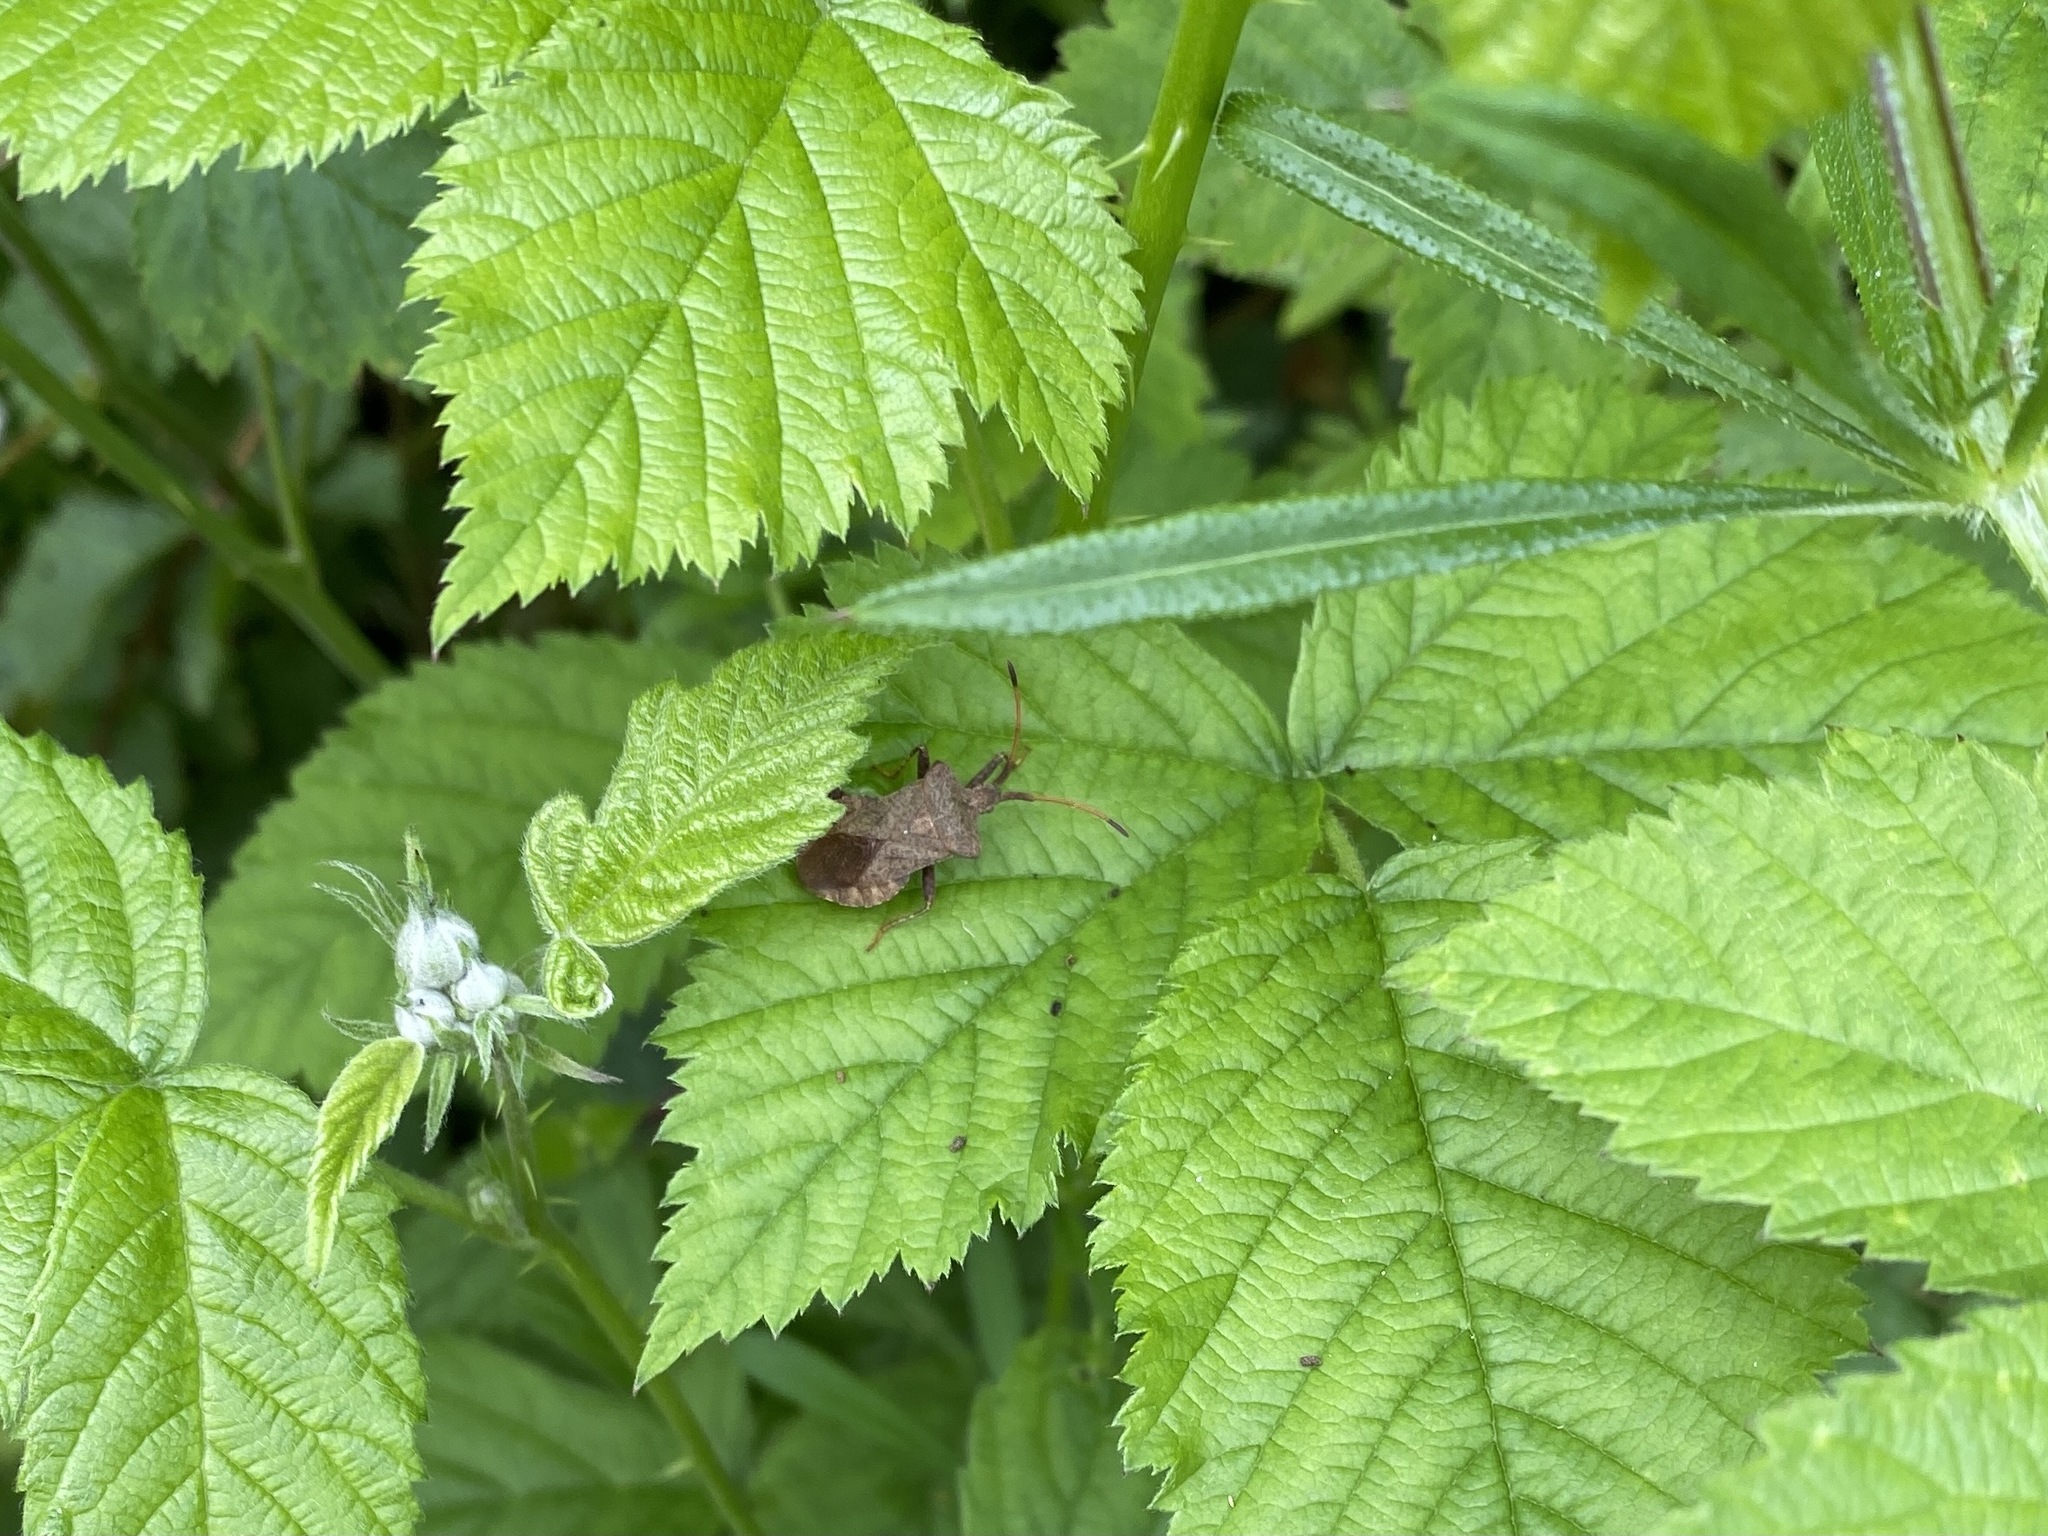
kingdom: Animalia
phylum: Arthropoda
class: Insecta
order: Hemiptera
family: Coreidae
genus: Coreus
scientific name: Coreus marginatus
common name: Dock bug
